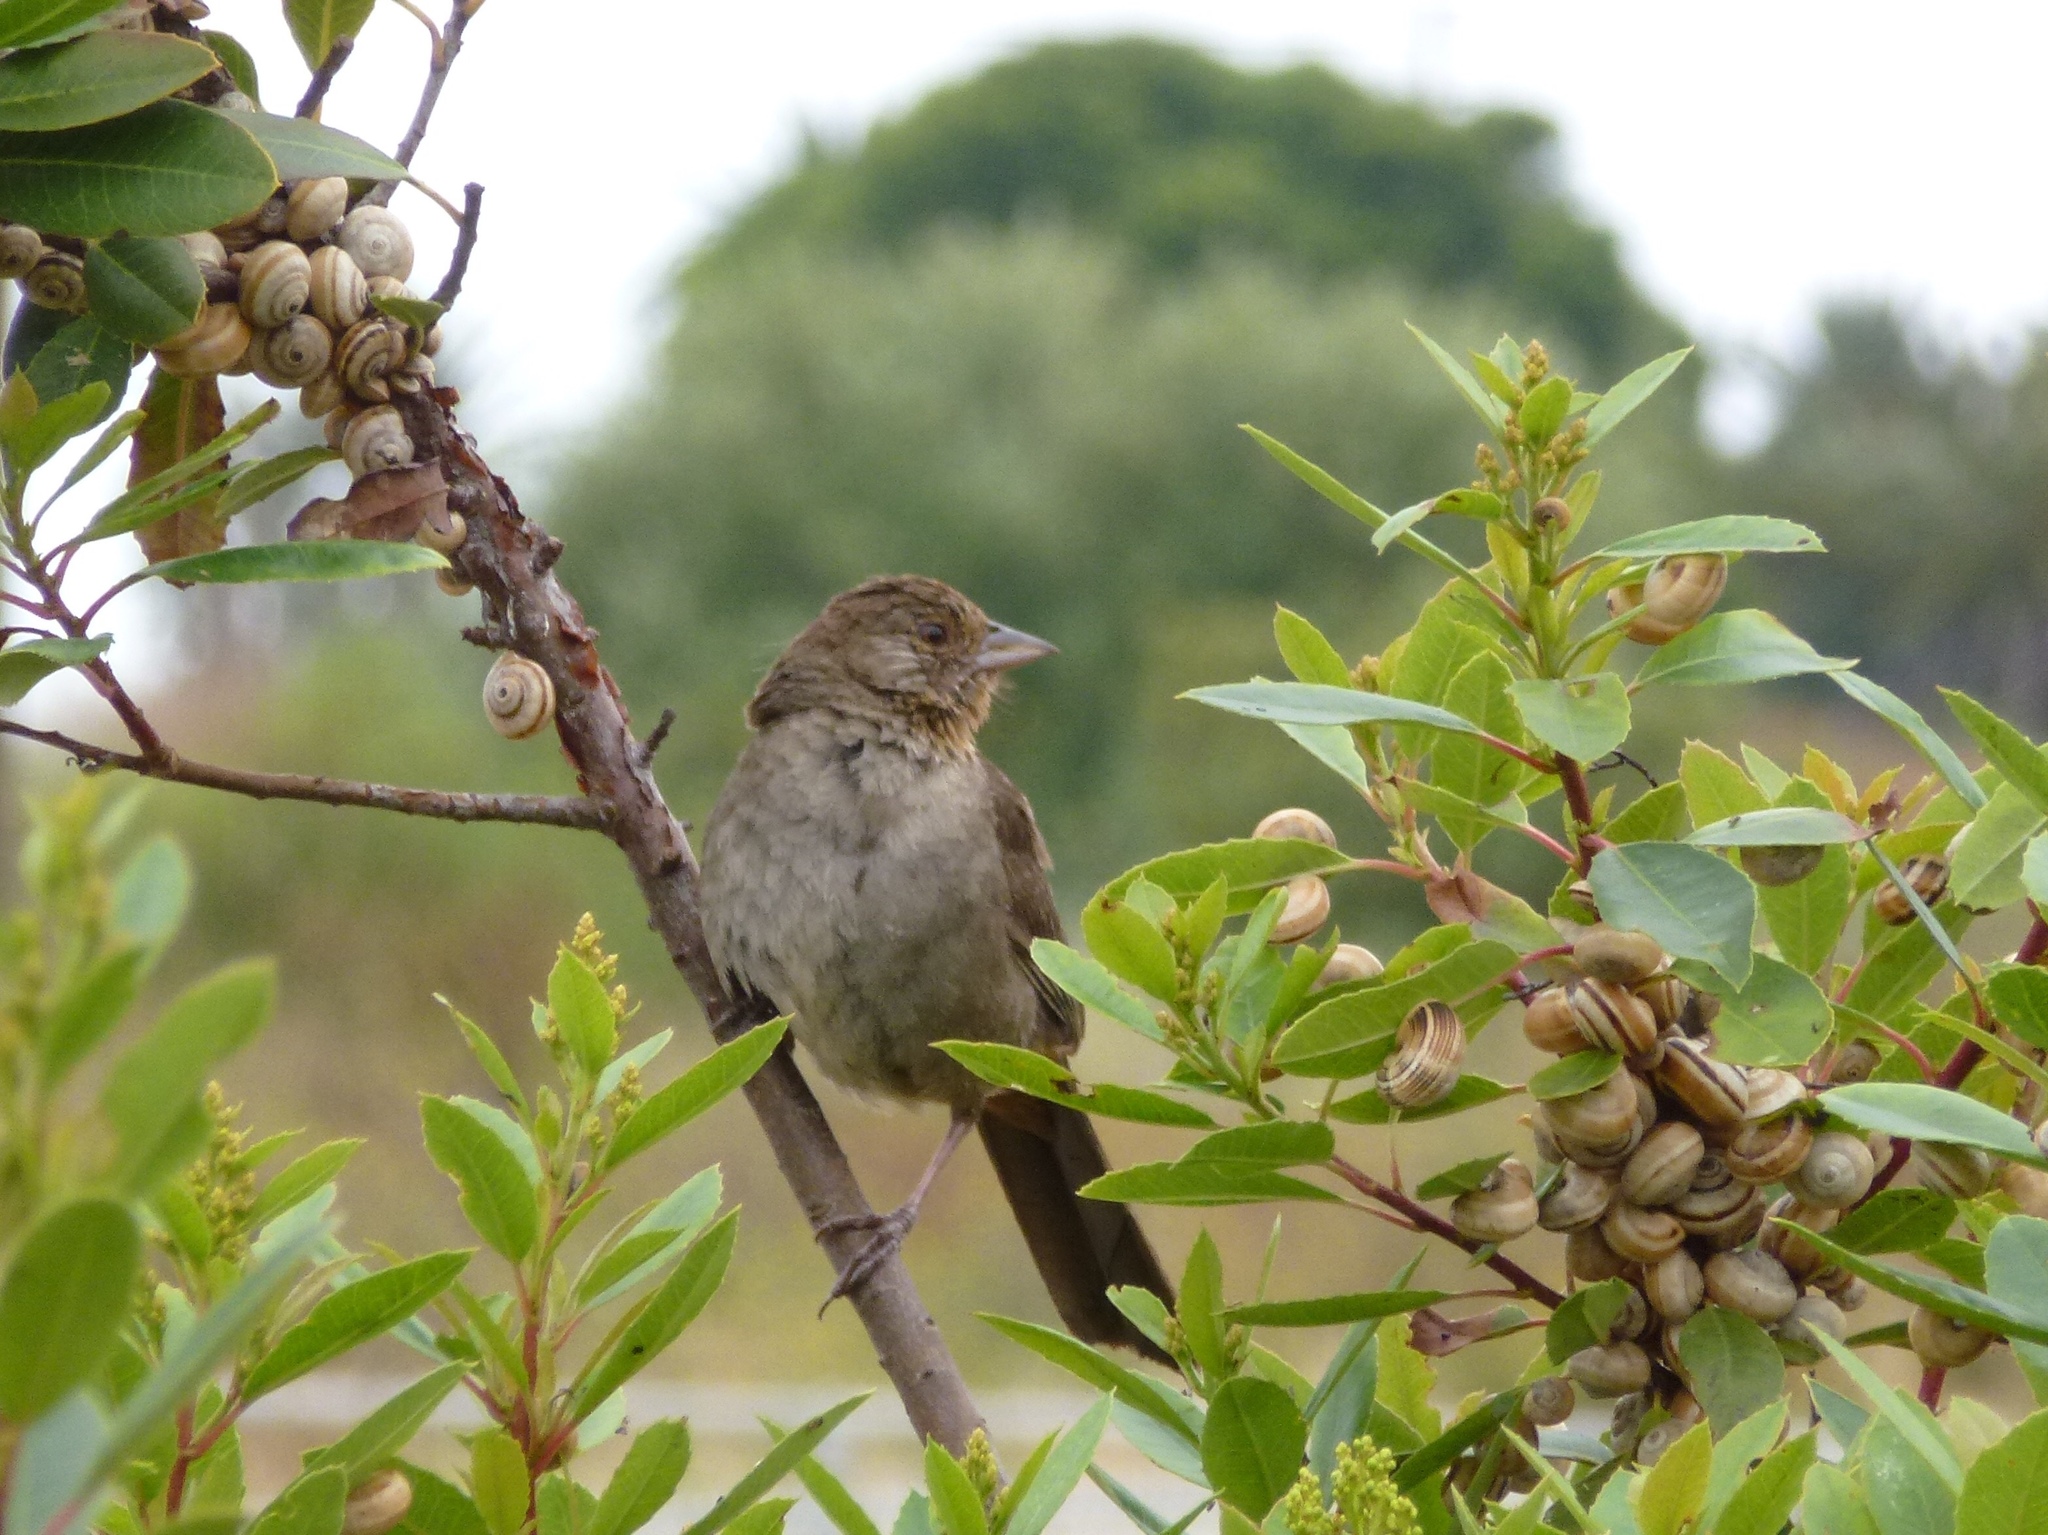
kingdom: Animalia
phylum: Chordata
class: Aves
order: Passeriformes
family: Passerellidae
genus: Melozone
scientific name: Melozone crissalis
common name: California towhee
